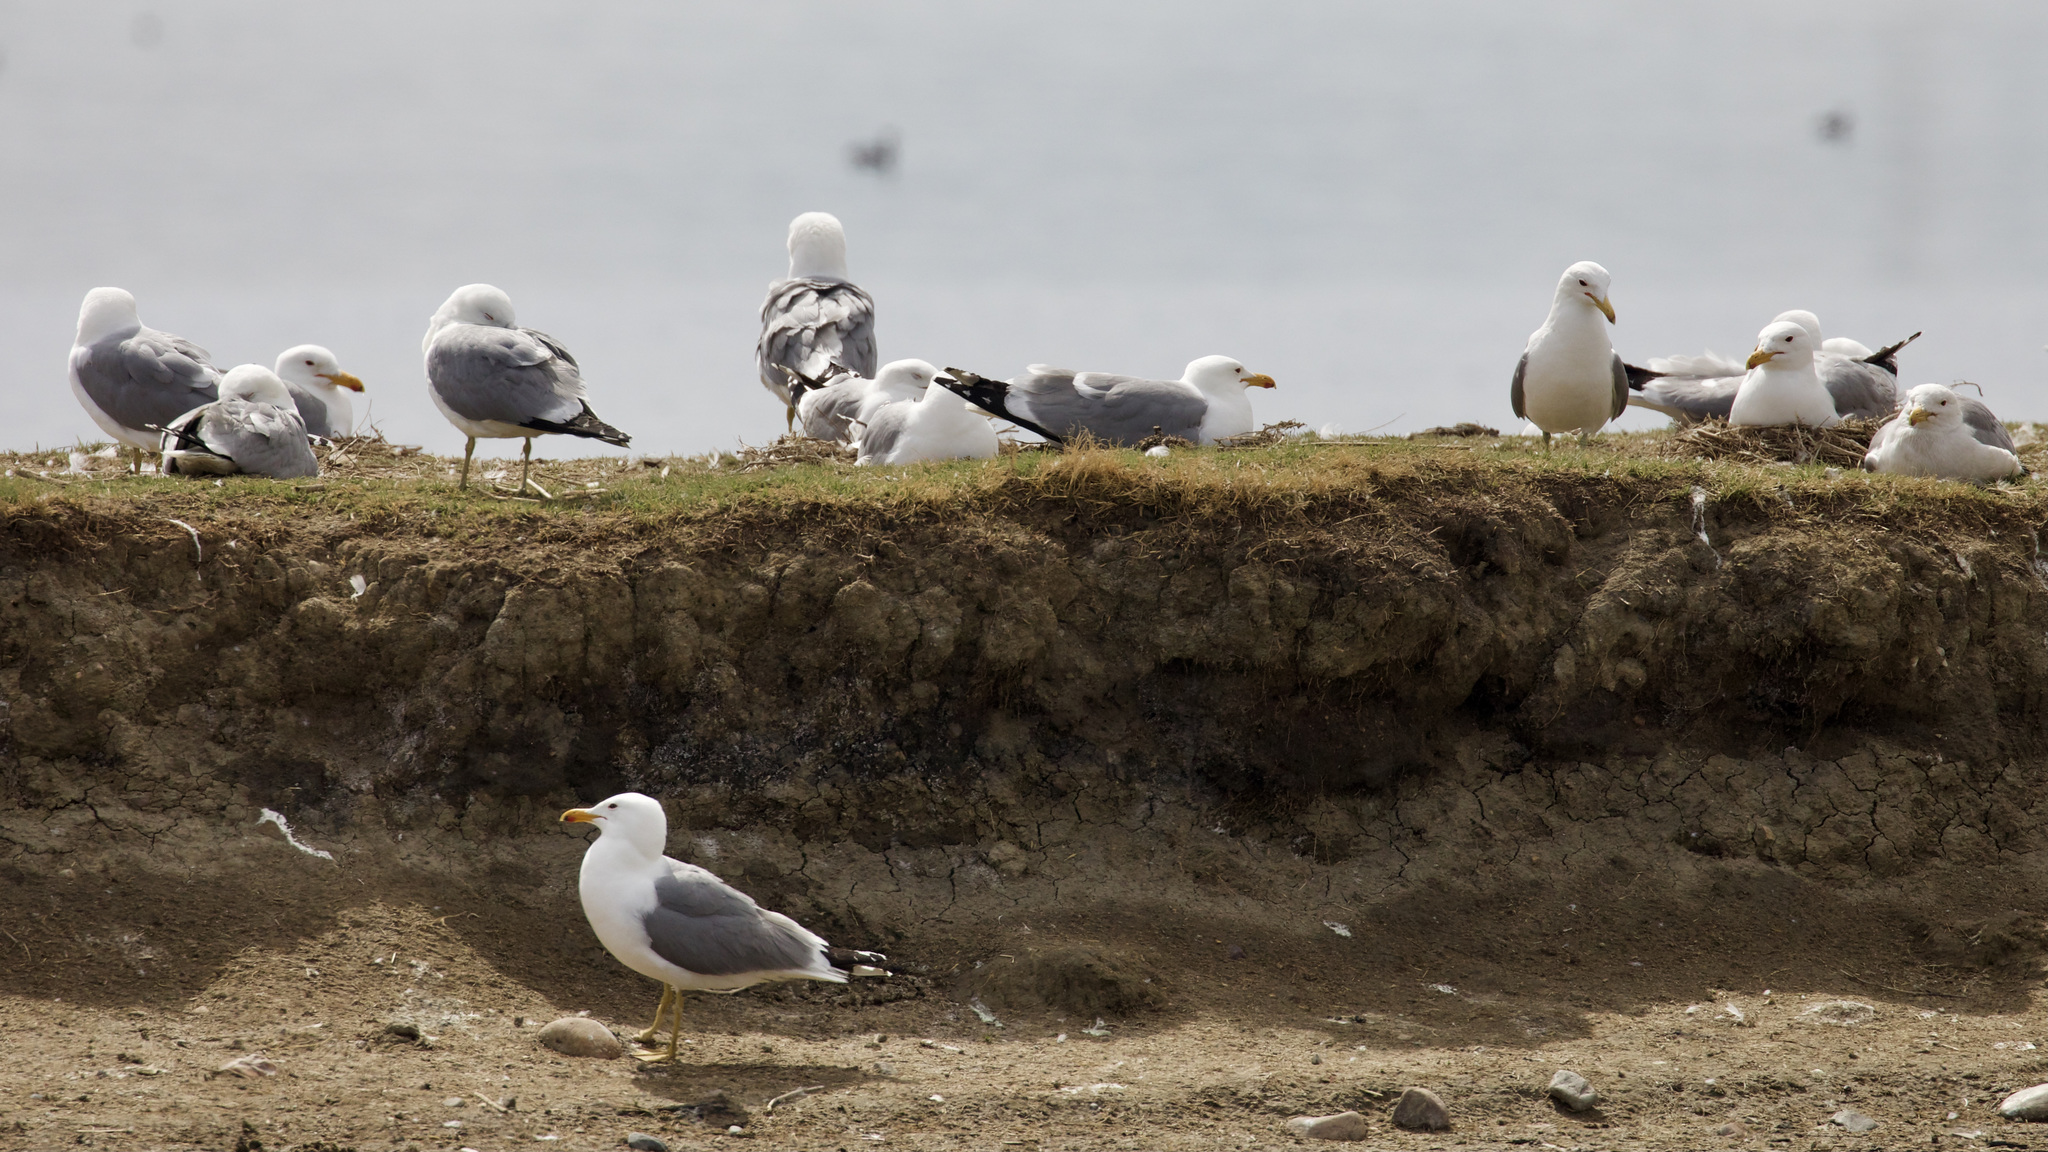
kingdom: Animalia
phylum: Chordata
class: Aves
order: Charadriiformes
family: Laridae
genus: Larus
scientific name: Larus californicus
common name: California gull
